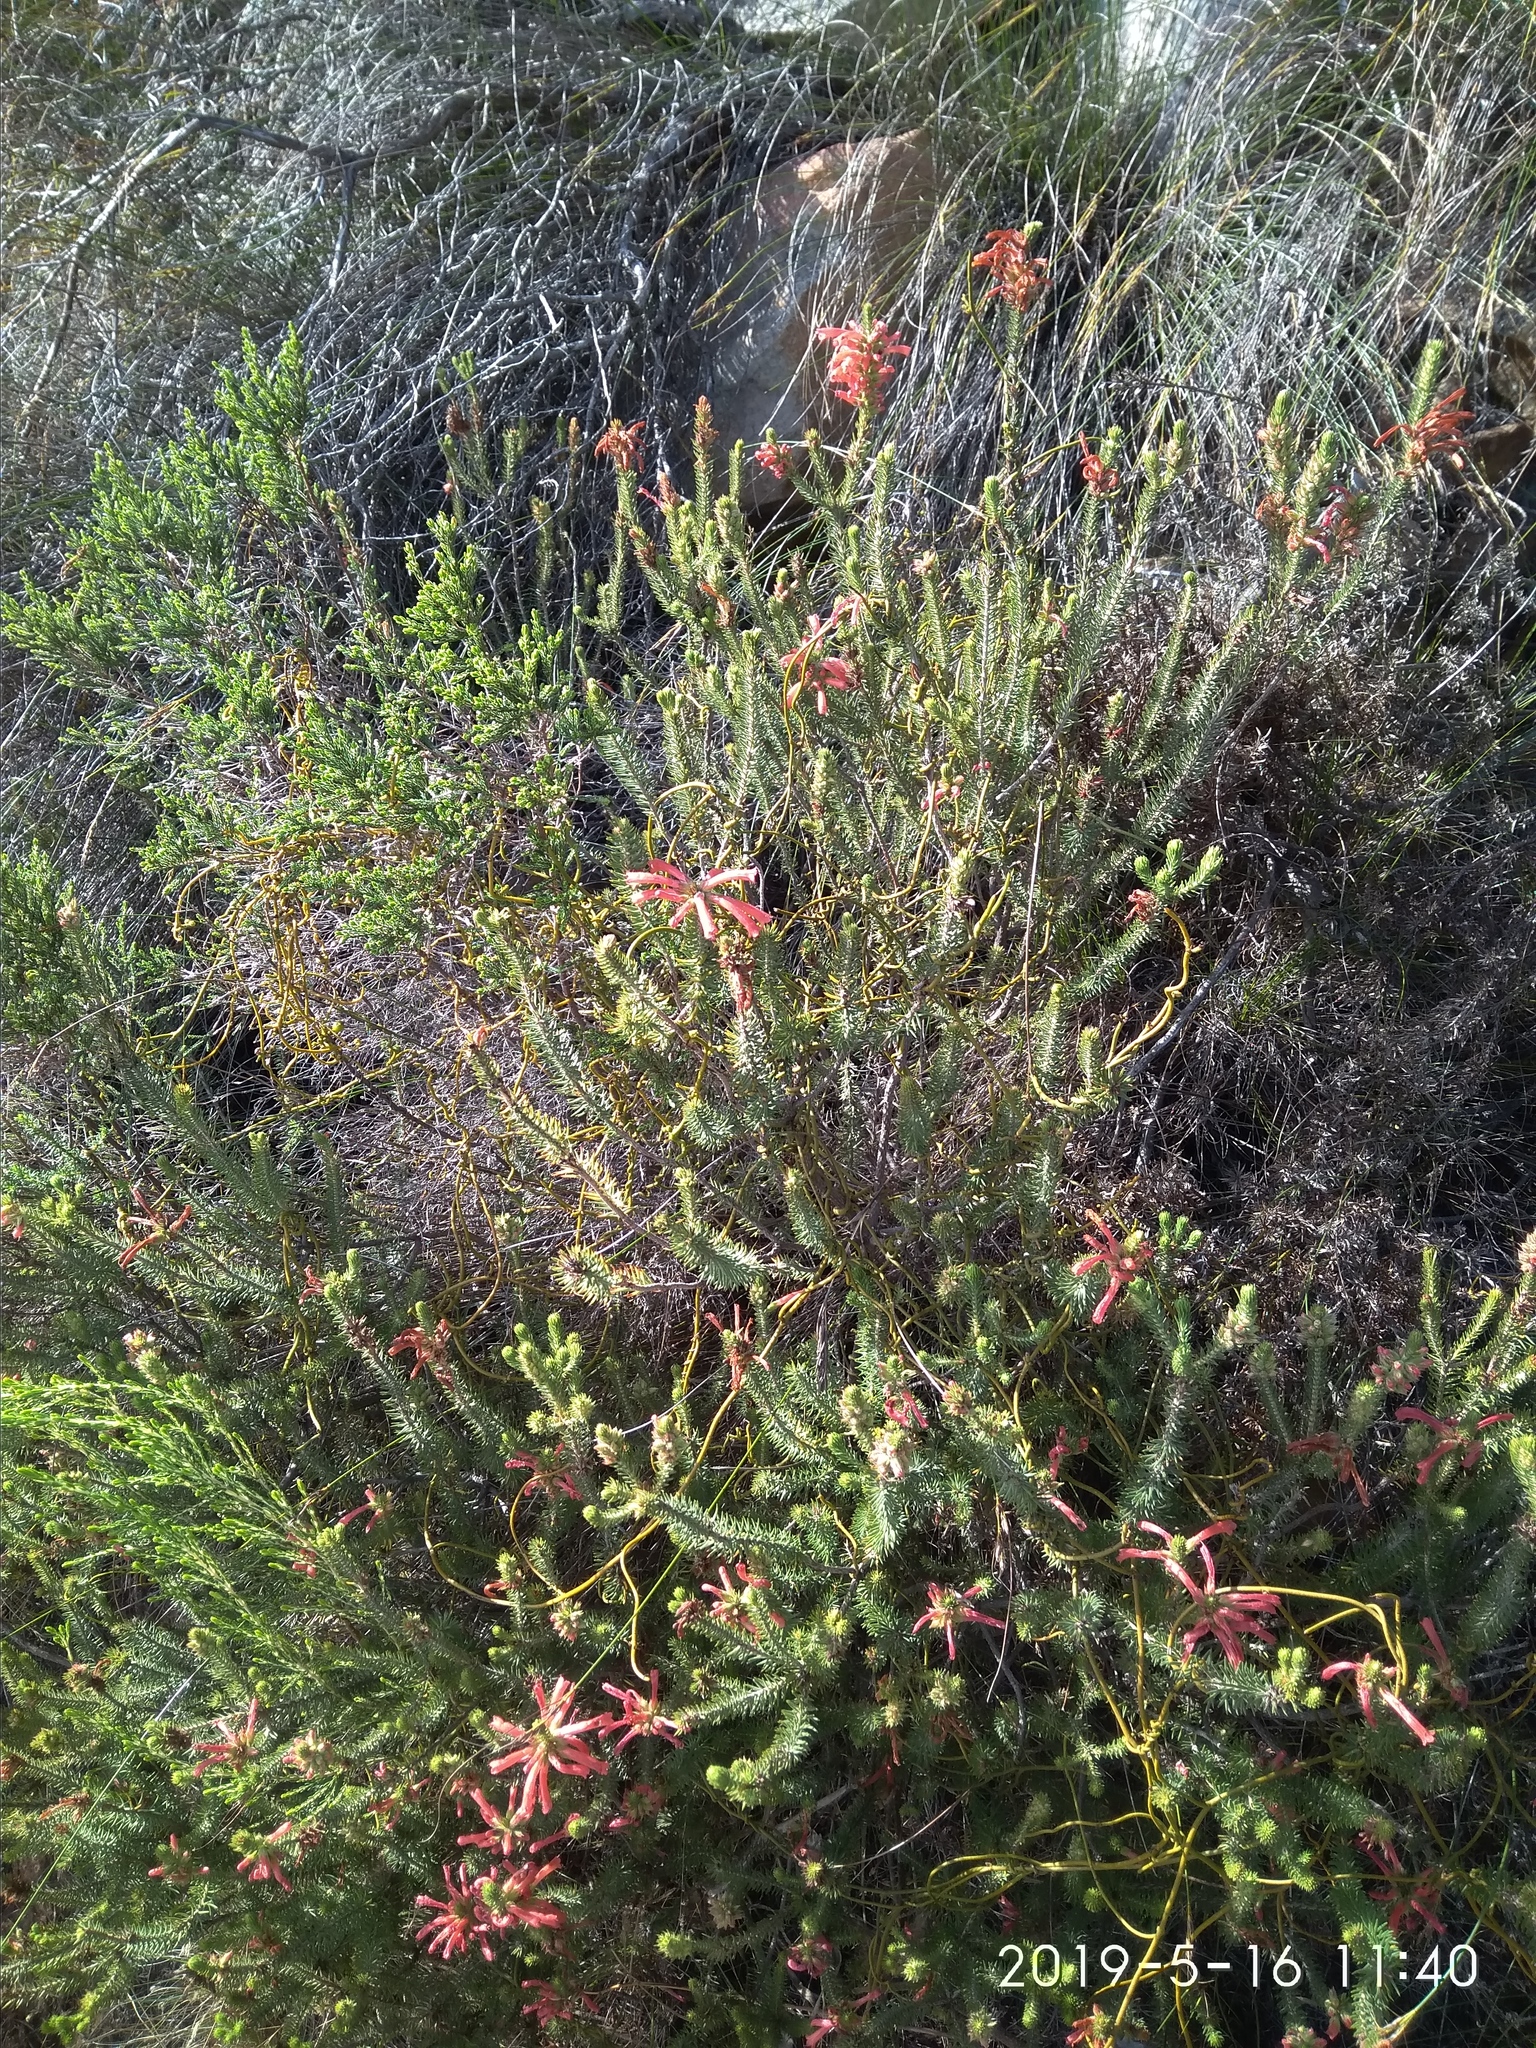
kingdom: Plantae
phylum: Tracheophyta
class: Magnoliopsida
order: Ericales
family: Ericaceae
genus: Erica
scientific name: Erica abietina
